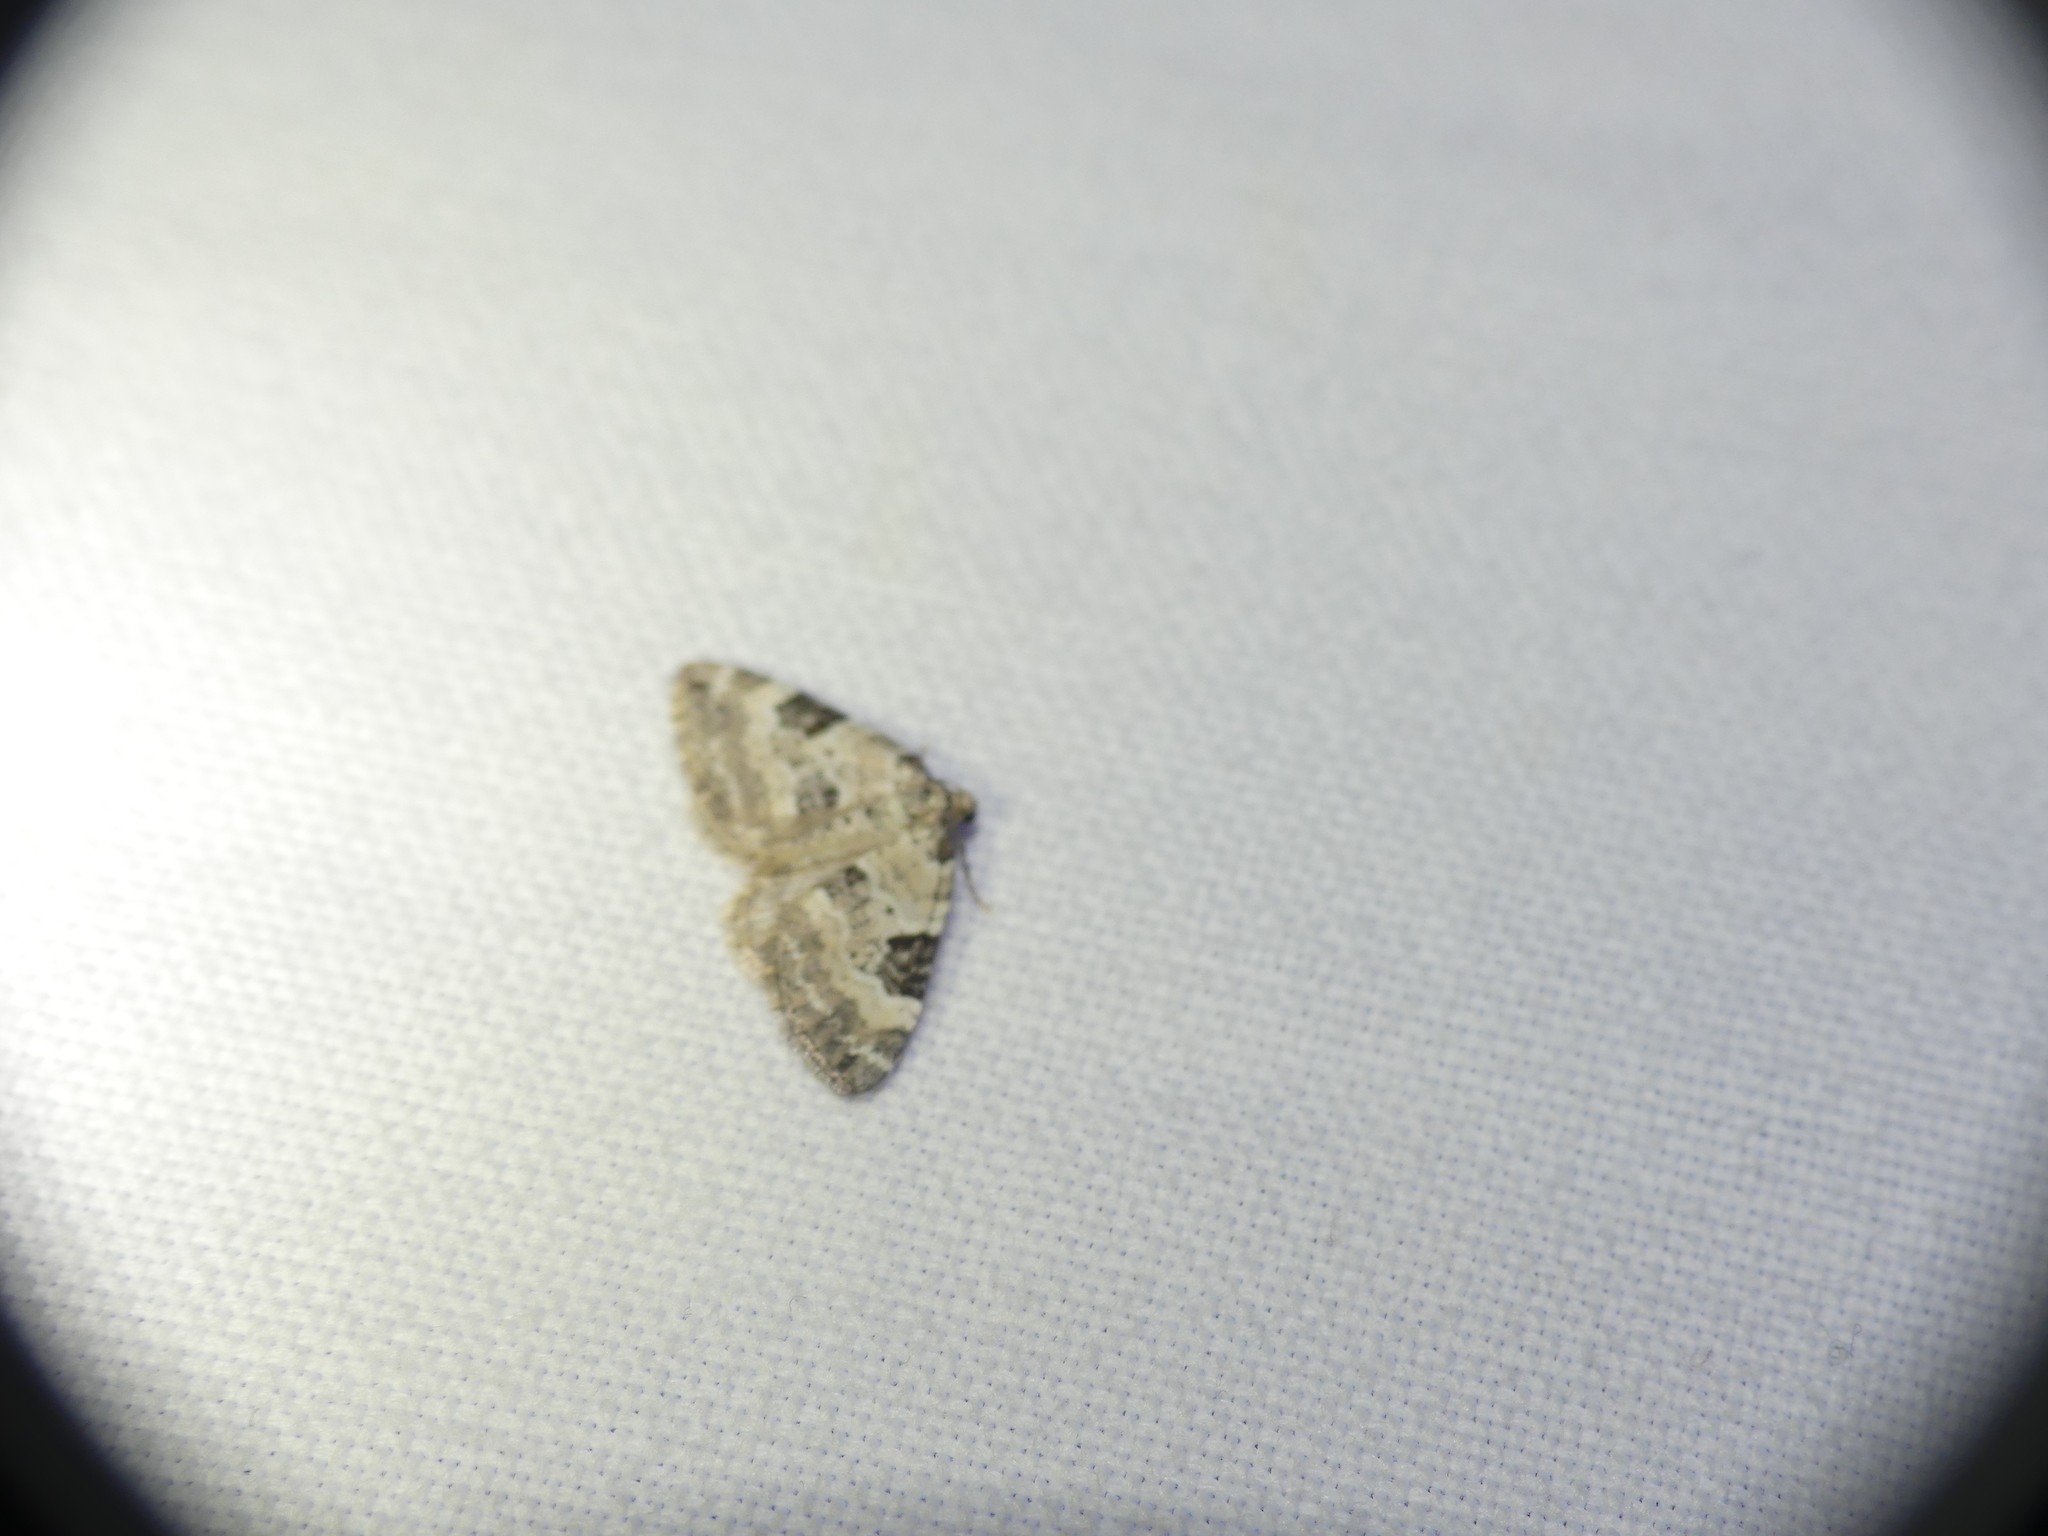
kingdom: Animalia
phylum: Arthropoda
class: Insecta
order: Lepidoptera
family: Geometridae
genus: Perizoma
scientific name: Perizoma blandiata
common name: Pretty pinion
